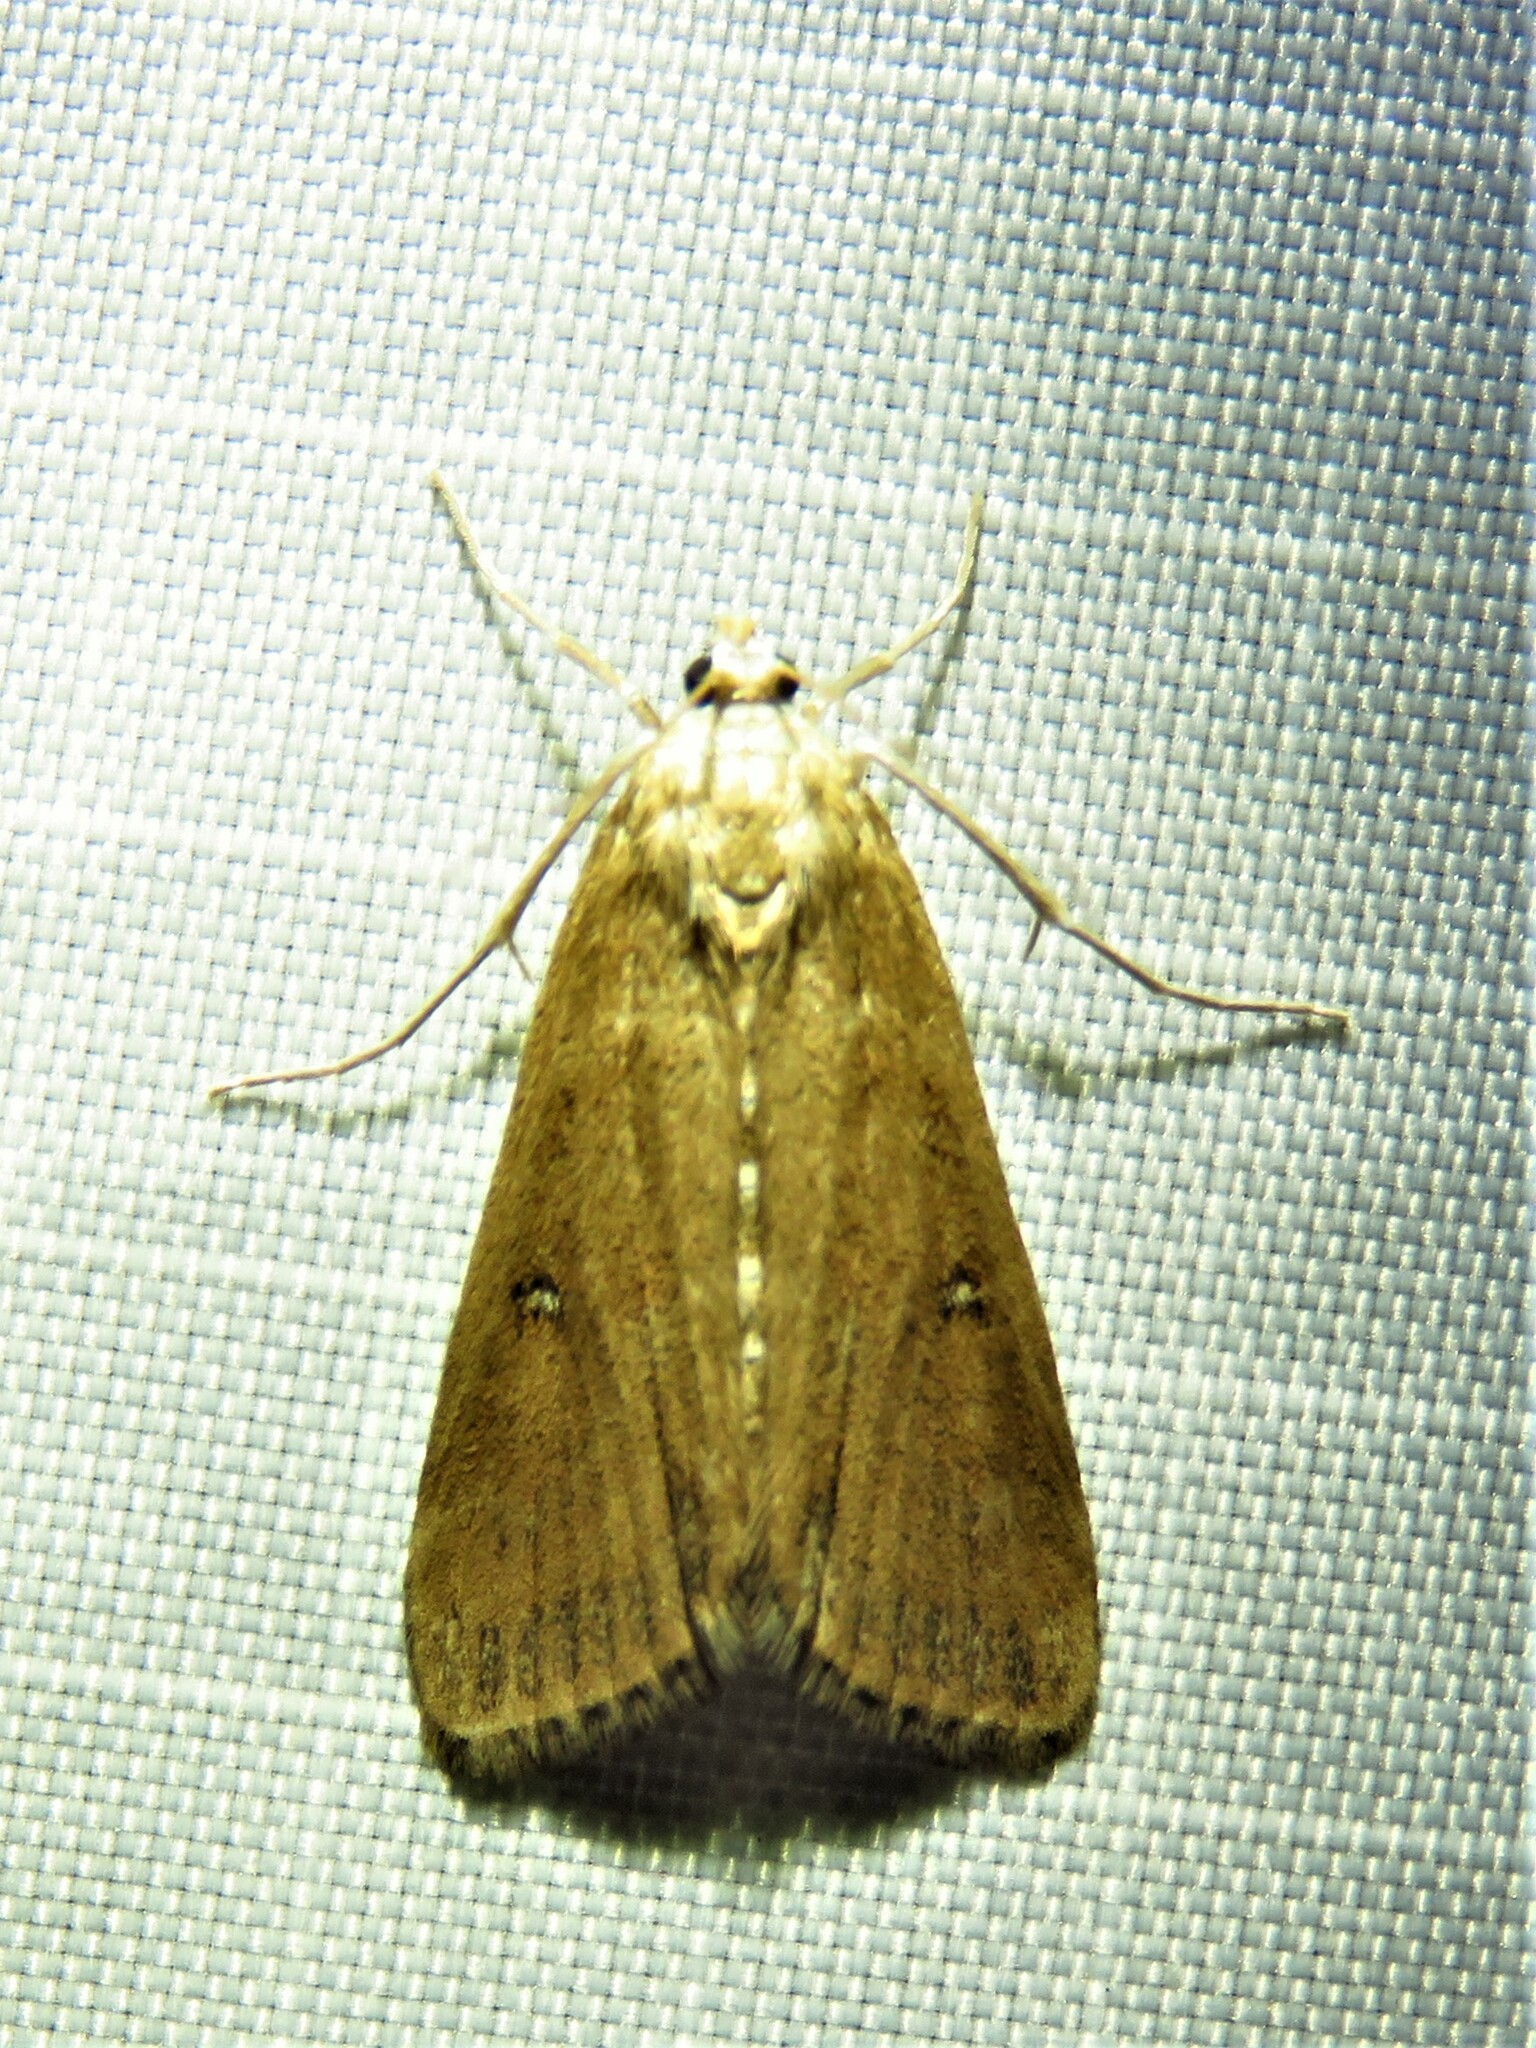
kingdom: Animalia
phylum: Arthropoda
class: Insecta
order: Lepidoptera
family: Crambidae
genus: Parapoynx
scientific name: Parapoynx stratiotata
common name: Ringed china-mark
